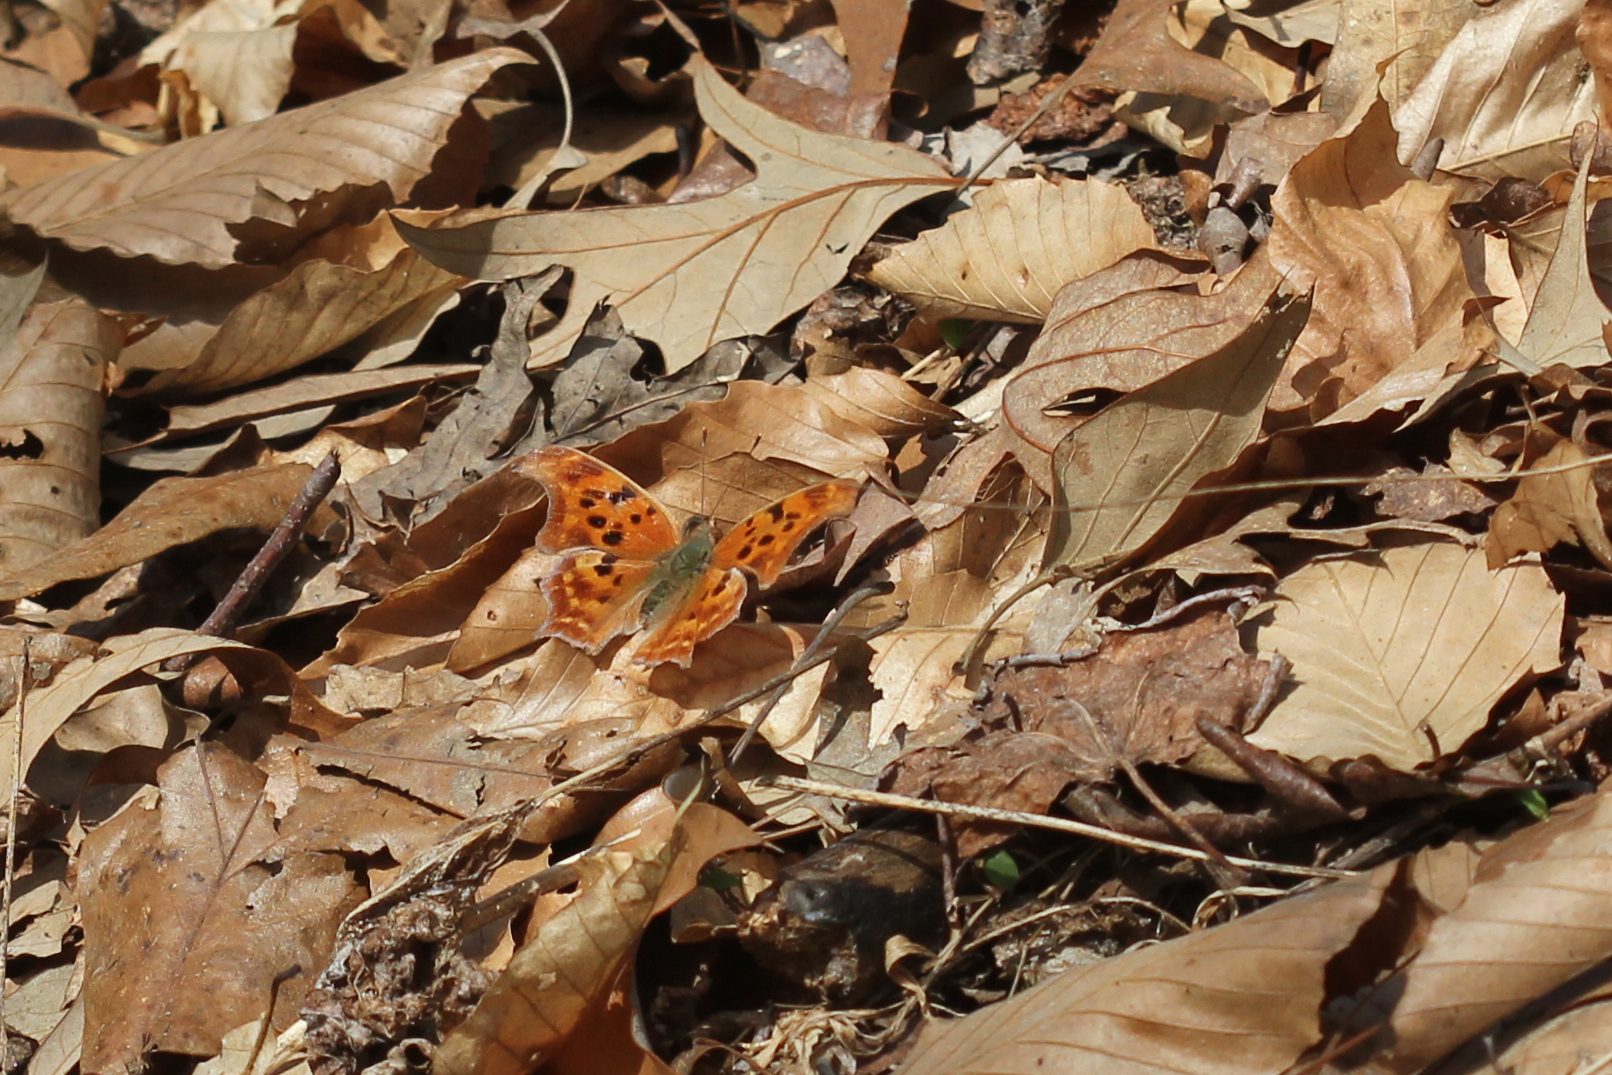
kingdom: Animalia
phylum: Arthropoda
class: Insecta
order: Lepidoptera
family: Nymphalidae
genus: Polygonia
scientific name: Polygonia interrogationis
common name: Question mark
